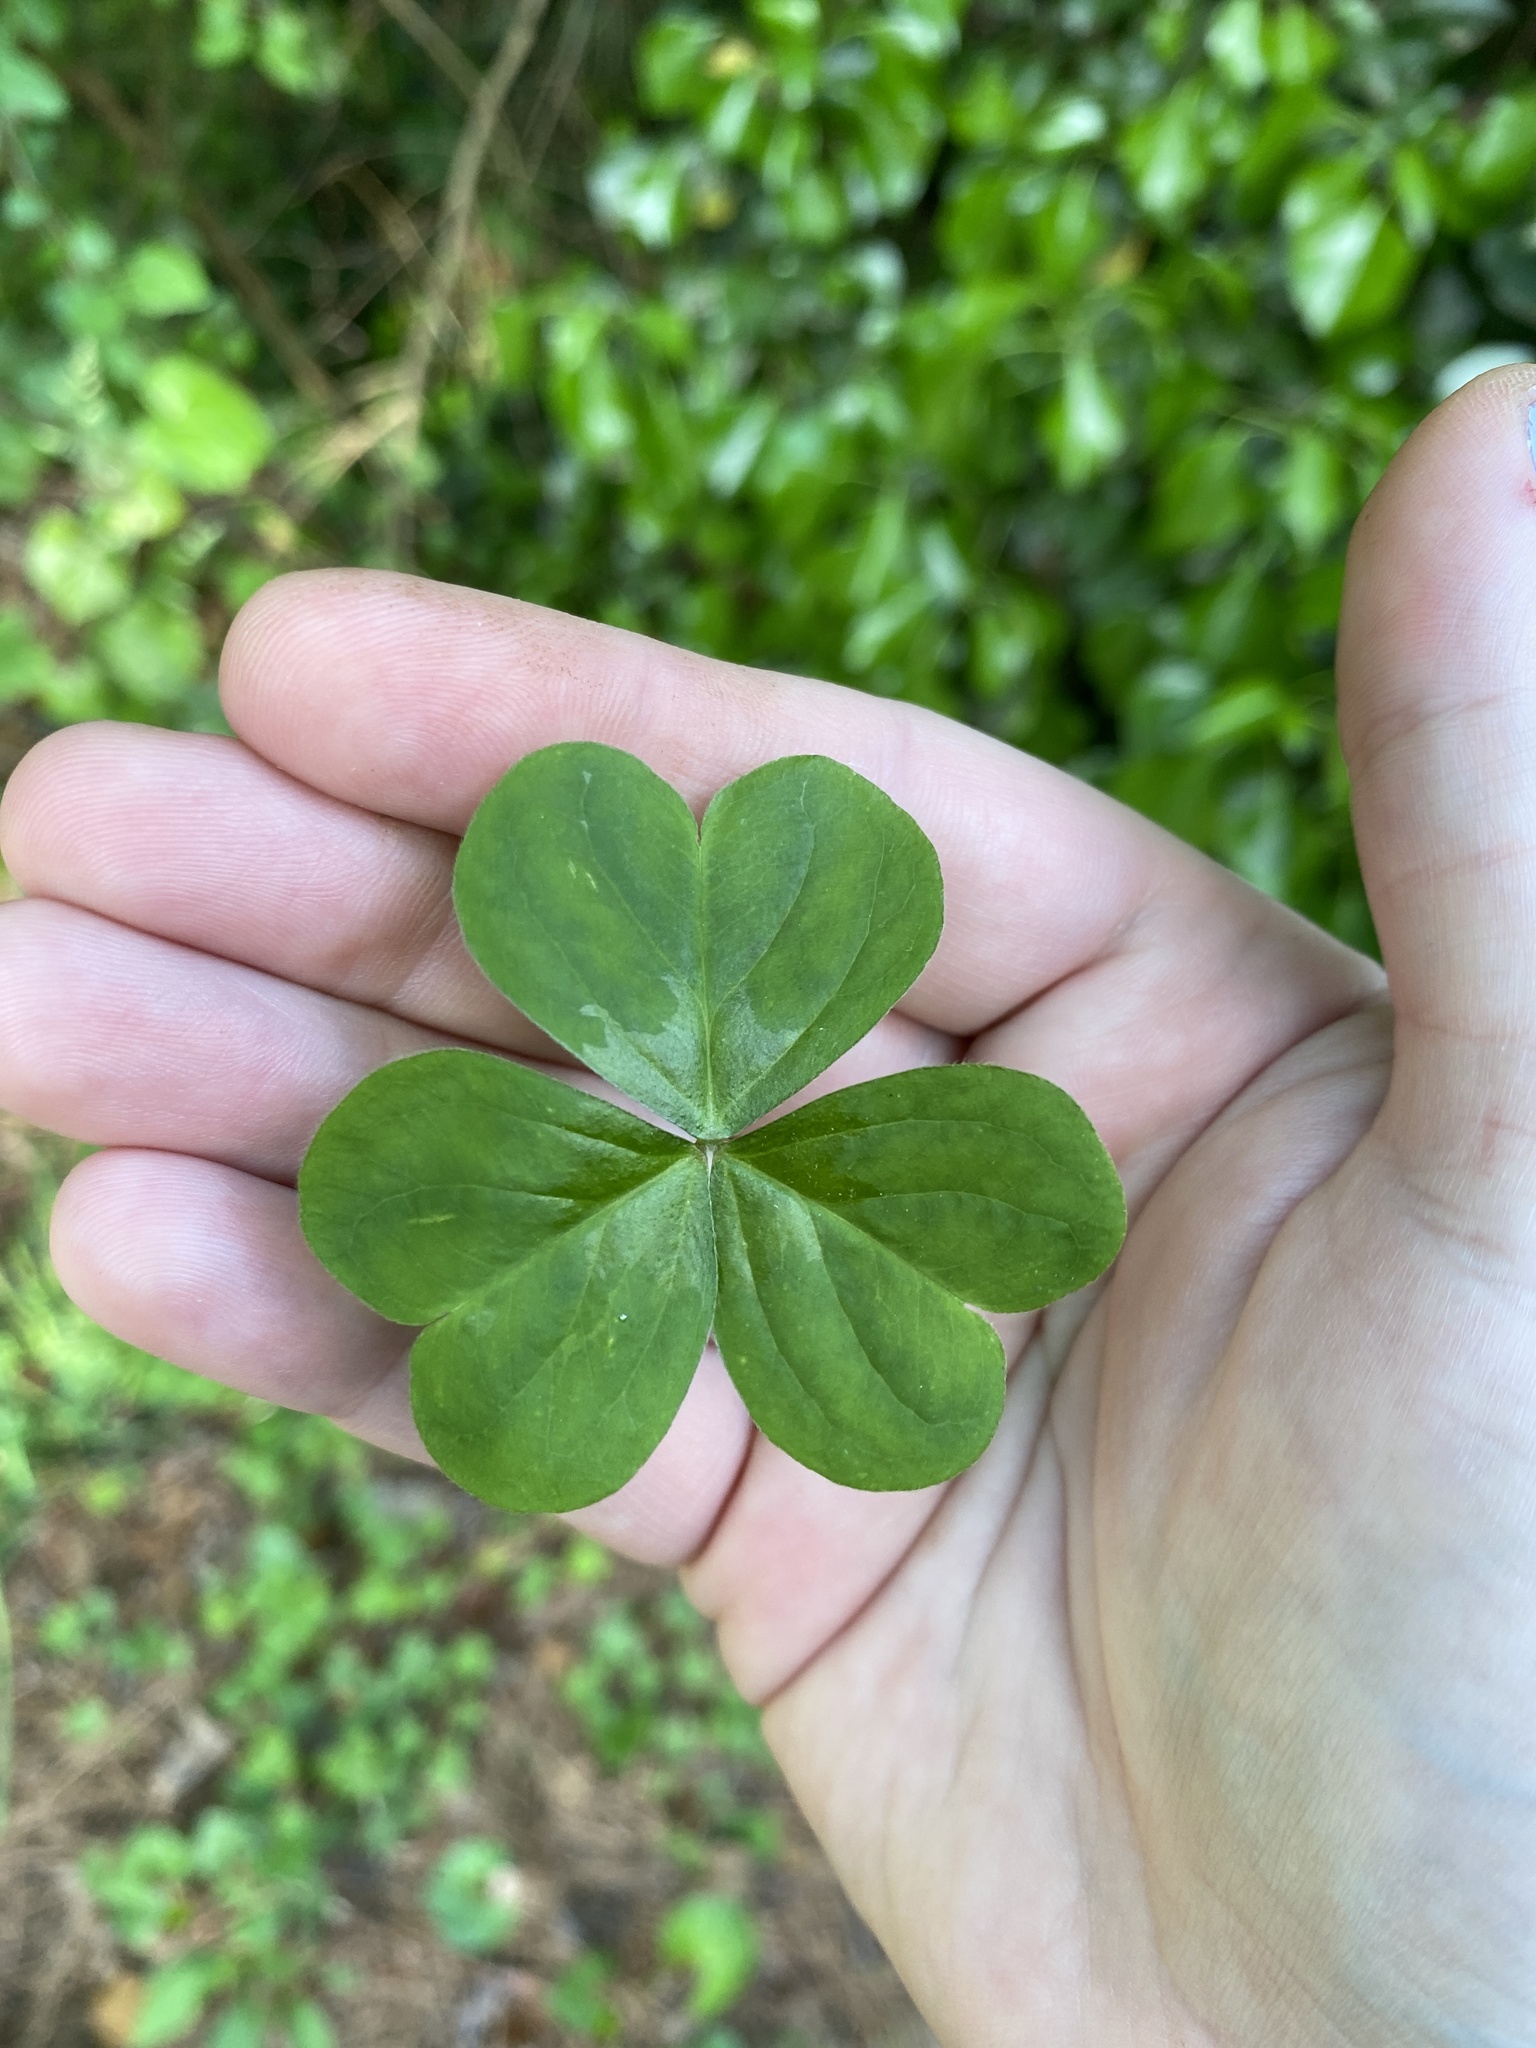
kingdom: Plantae
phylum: Tracheophyta
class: Magnoliopsida
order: Oxalidales
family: Oxalidaceae
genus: Oxalis
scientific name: Oxalis debilis
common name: Large-flowered pink-sorrel
